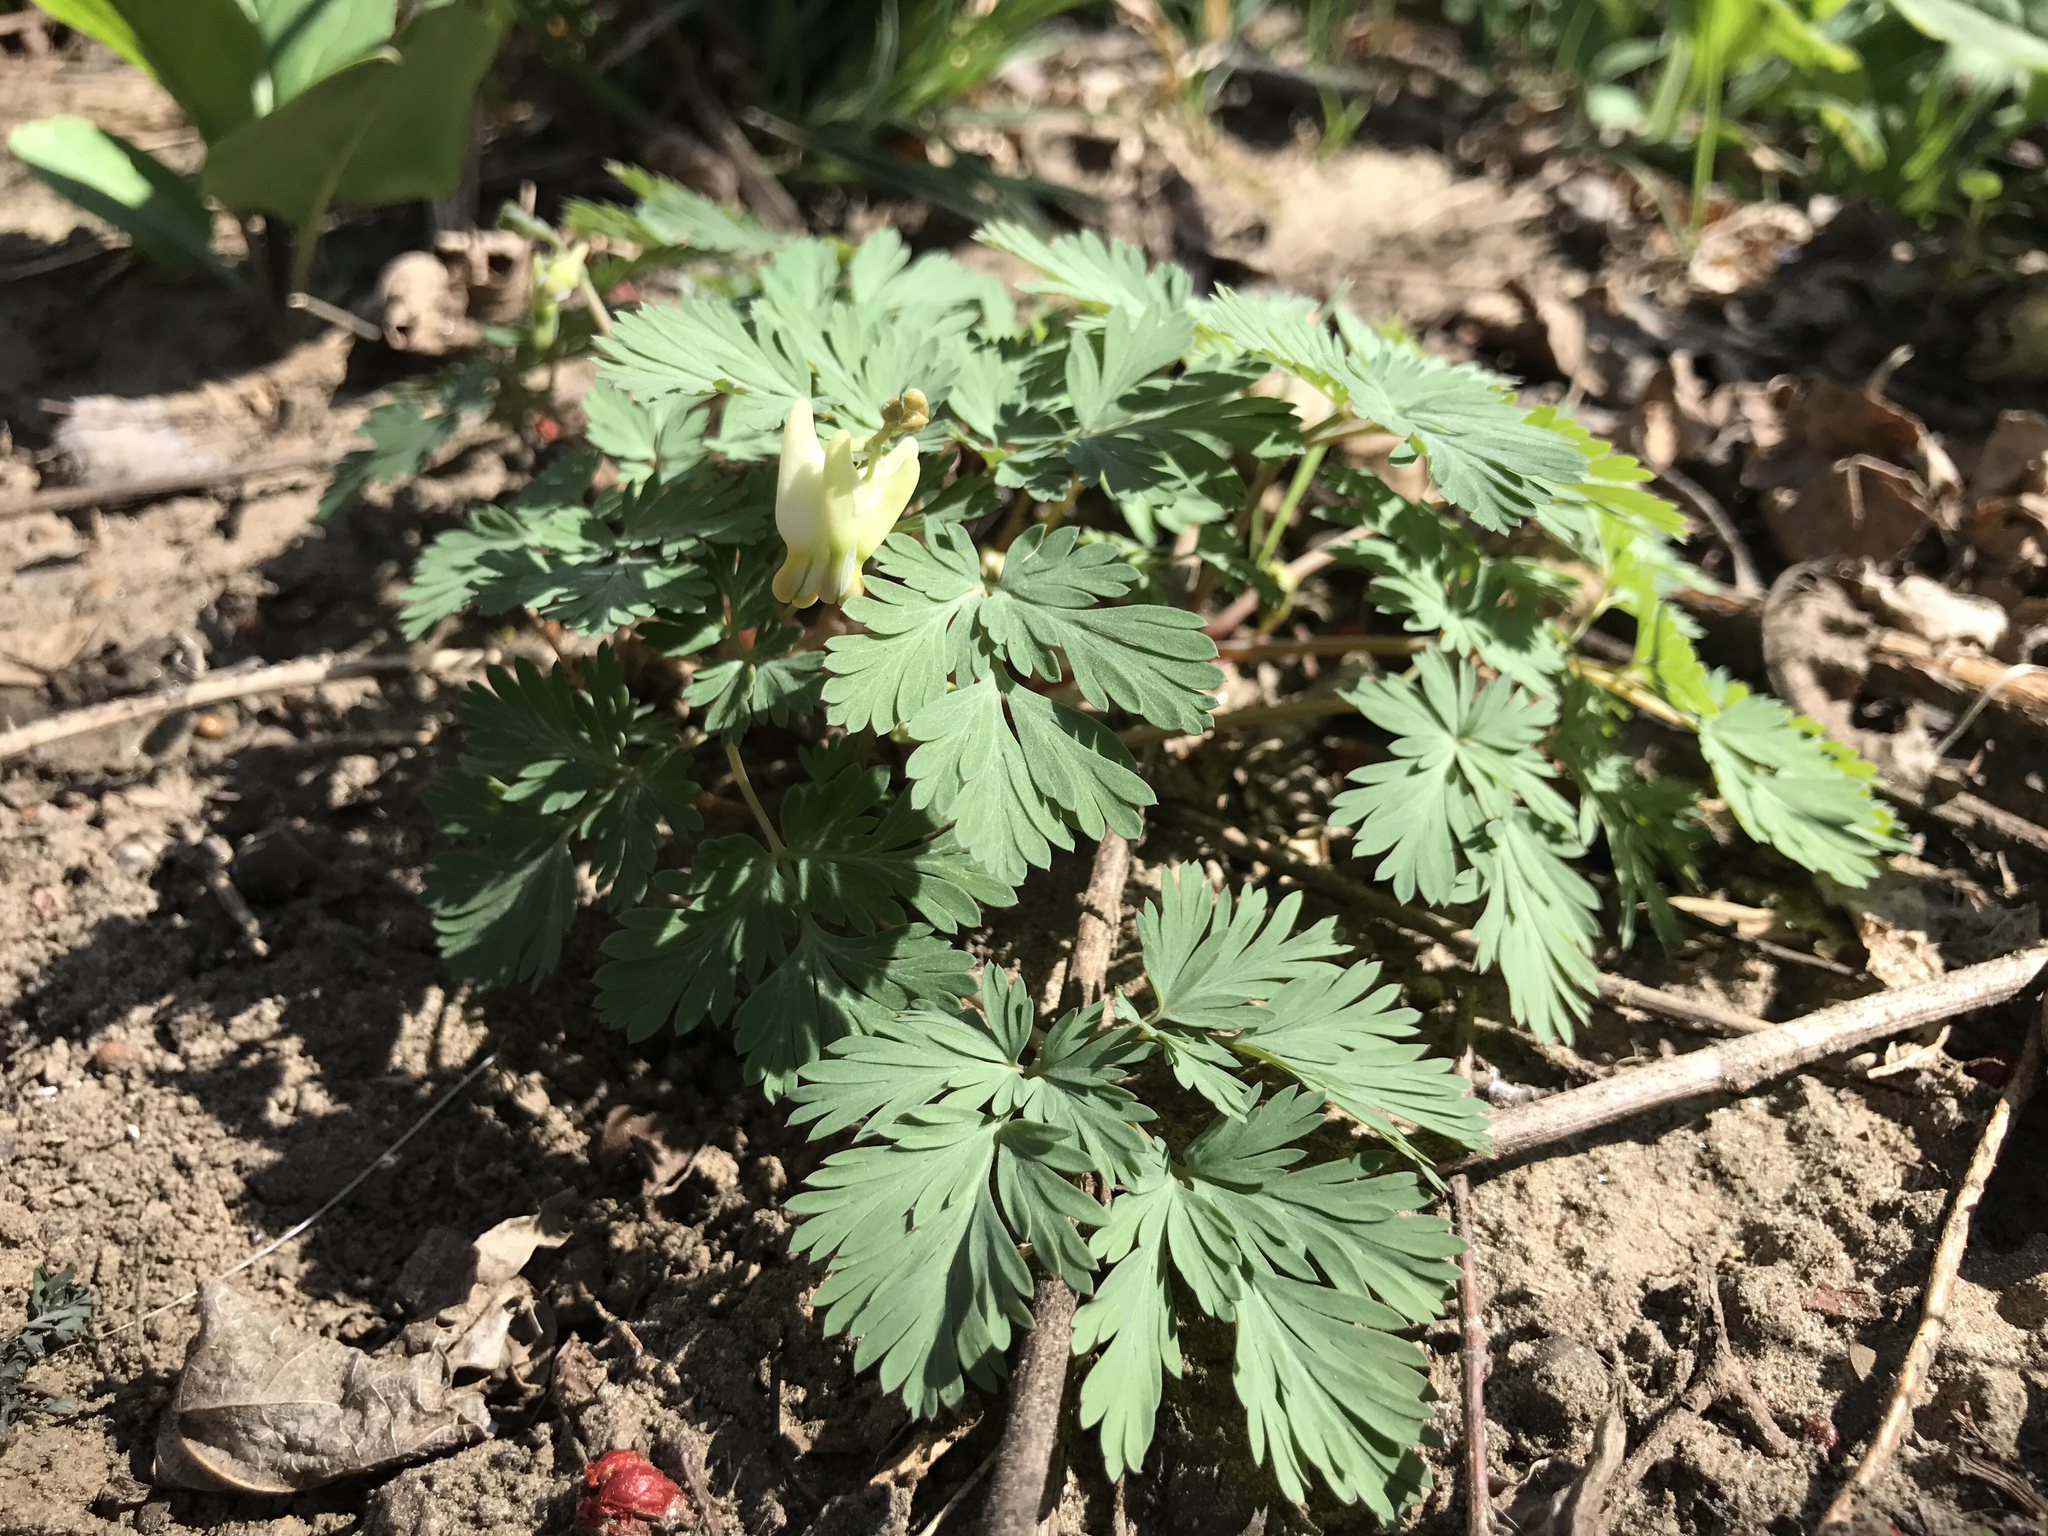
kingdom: Plantae
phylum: Tracheophyta
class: Magnoliopsida
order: Ranunculales
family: Papaveraceae
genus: Dicentra
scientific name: Dicentra cucullaria
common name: Dutchman's breeches
